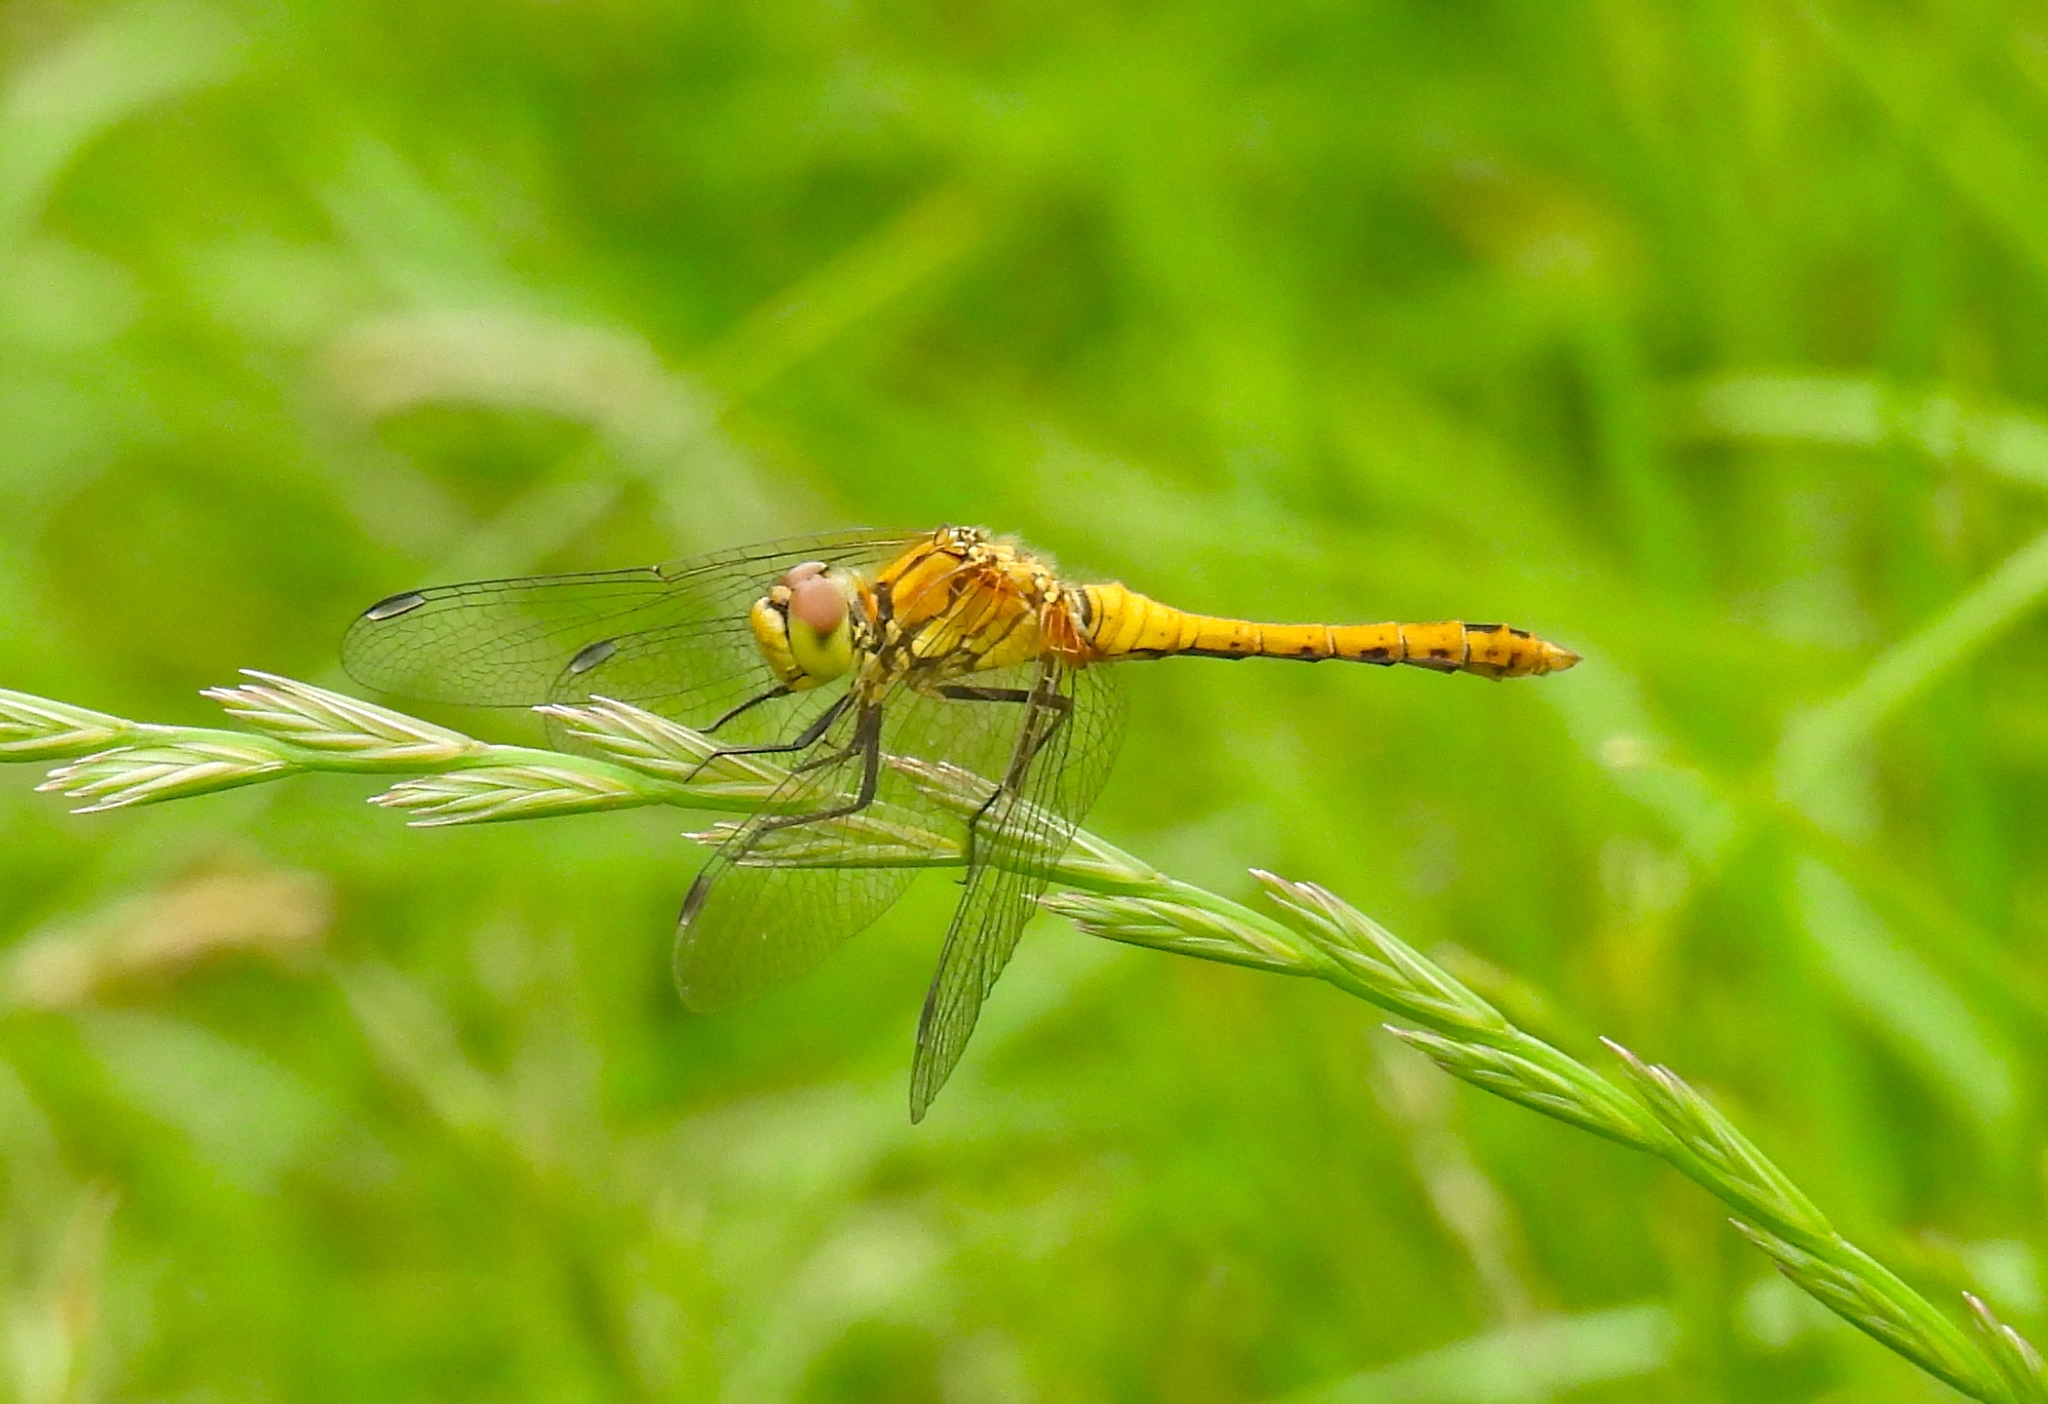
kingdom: Animalia
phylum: Arthropoda
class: Insecta
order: Odonata
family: Libellulidae
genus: Sympetrum
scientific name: Sympetrum sanguineum
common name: Ruddy darter
